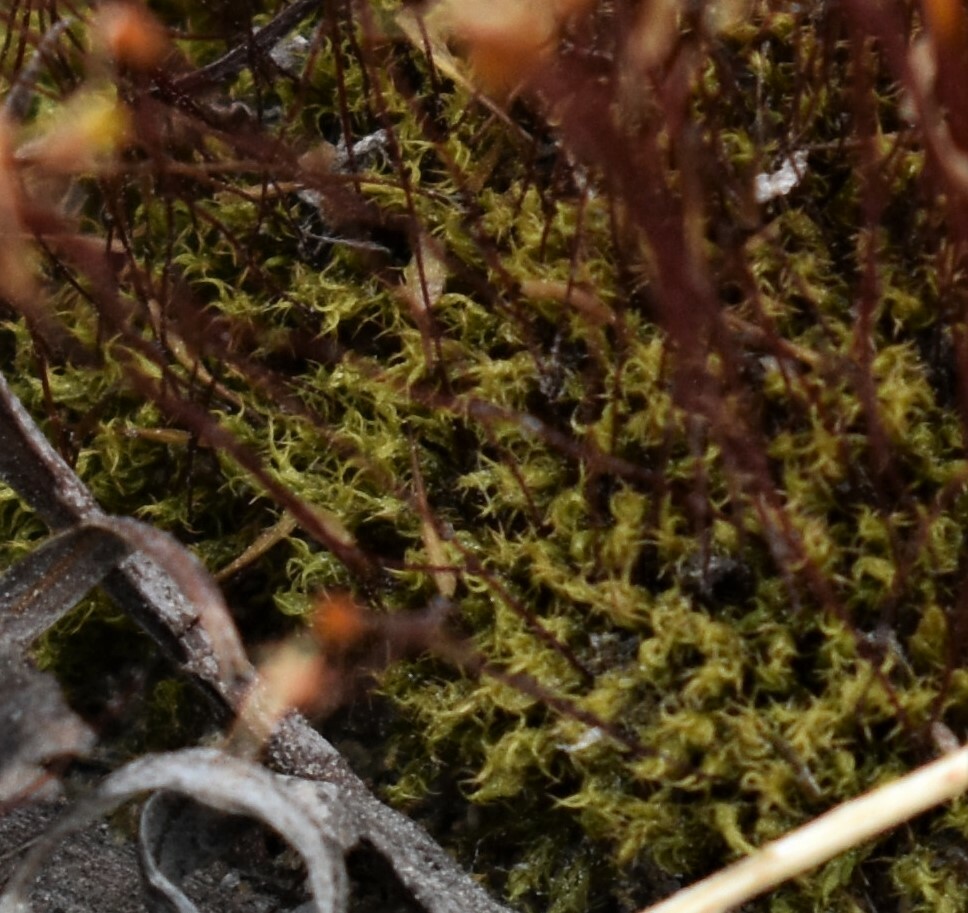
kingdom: Plantae
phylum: Bryophyta
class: Bryopsida
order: Dicranales
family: Ditrichaceae
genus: Ceratodon
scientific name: Ceratodon purpureus
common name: Redshank
